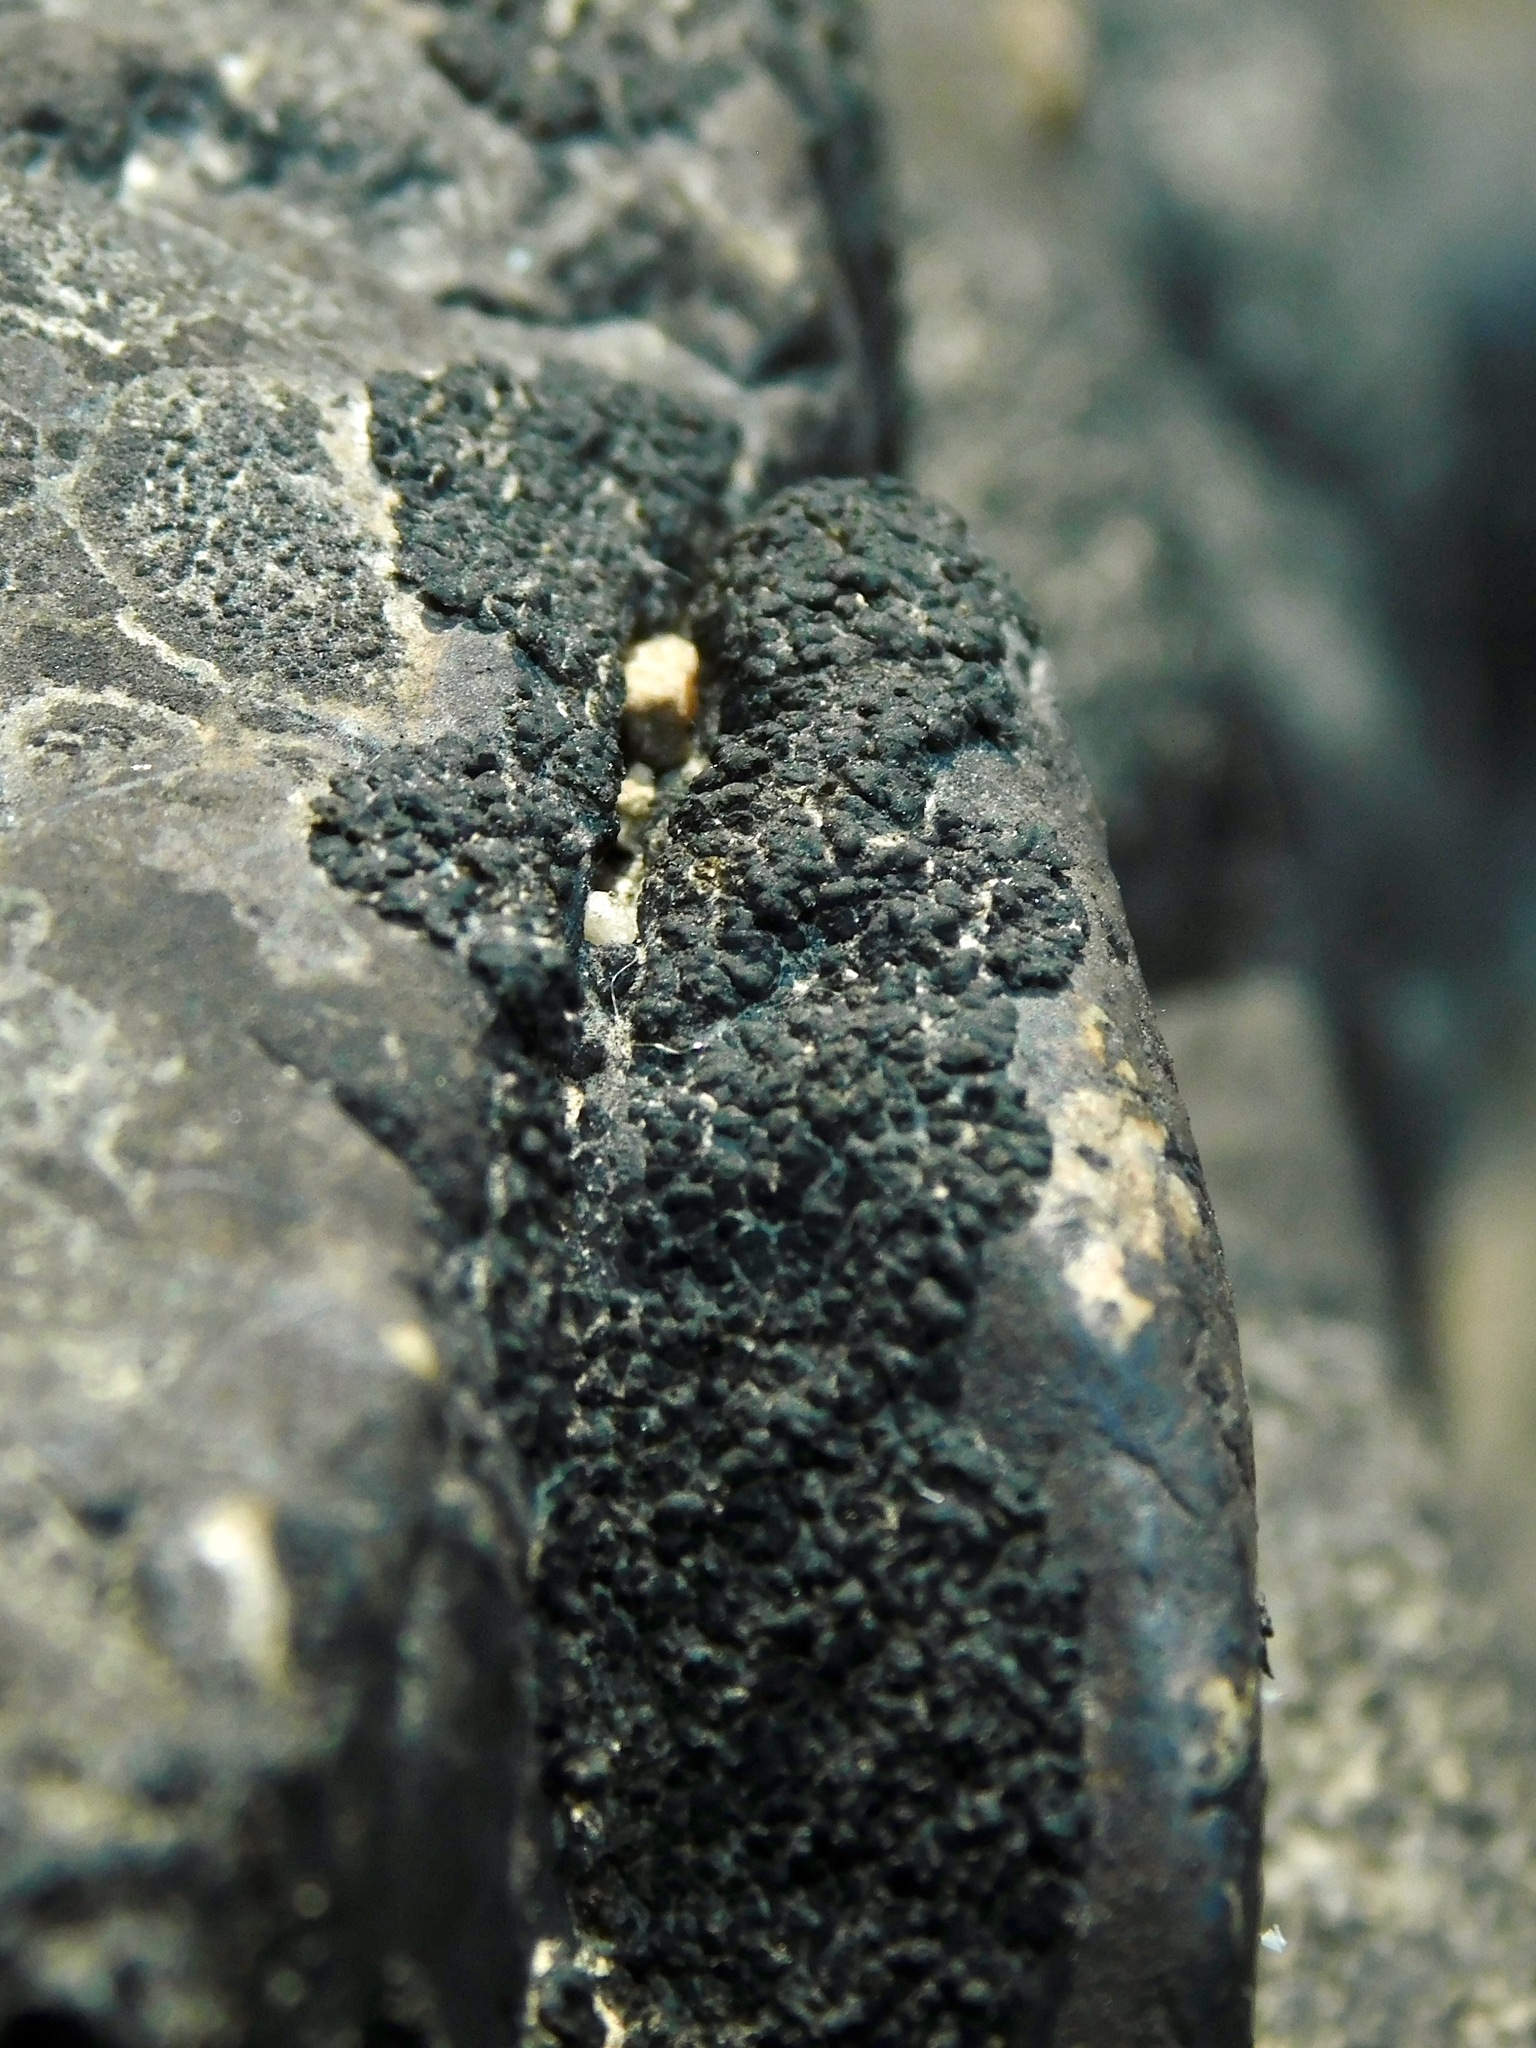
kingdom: Fungi
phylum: Ascomycota
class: Lichinomycetes
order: Lichinales
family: Peltulaceae
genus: Peltula
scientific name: Peltula placodizans
